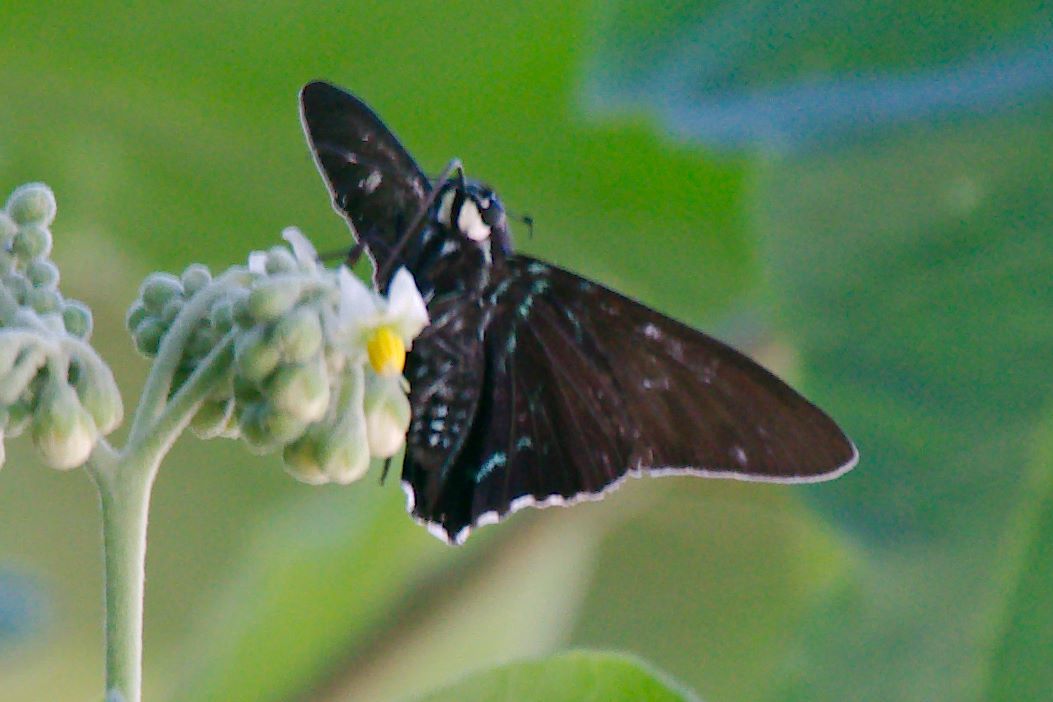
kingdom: Animalia
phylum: Arthropoda
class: Insecta
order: Lepidoptera
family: Hesperiidae
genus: Phocides
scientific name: Phocides pigmalion
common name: Mangrove skipper
